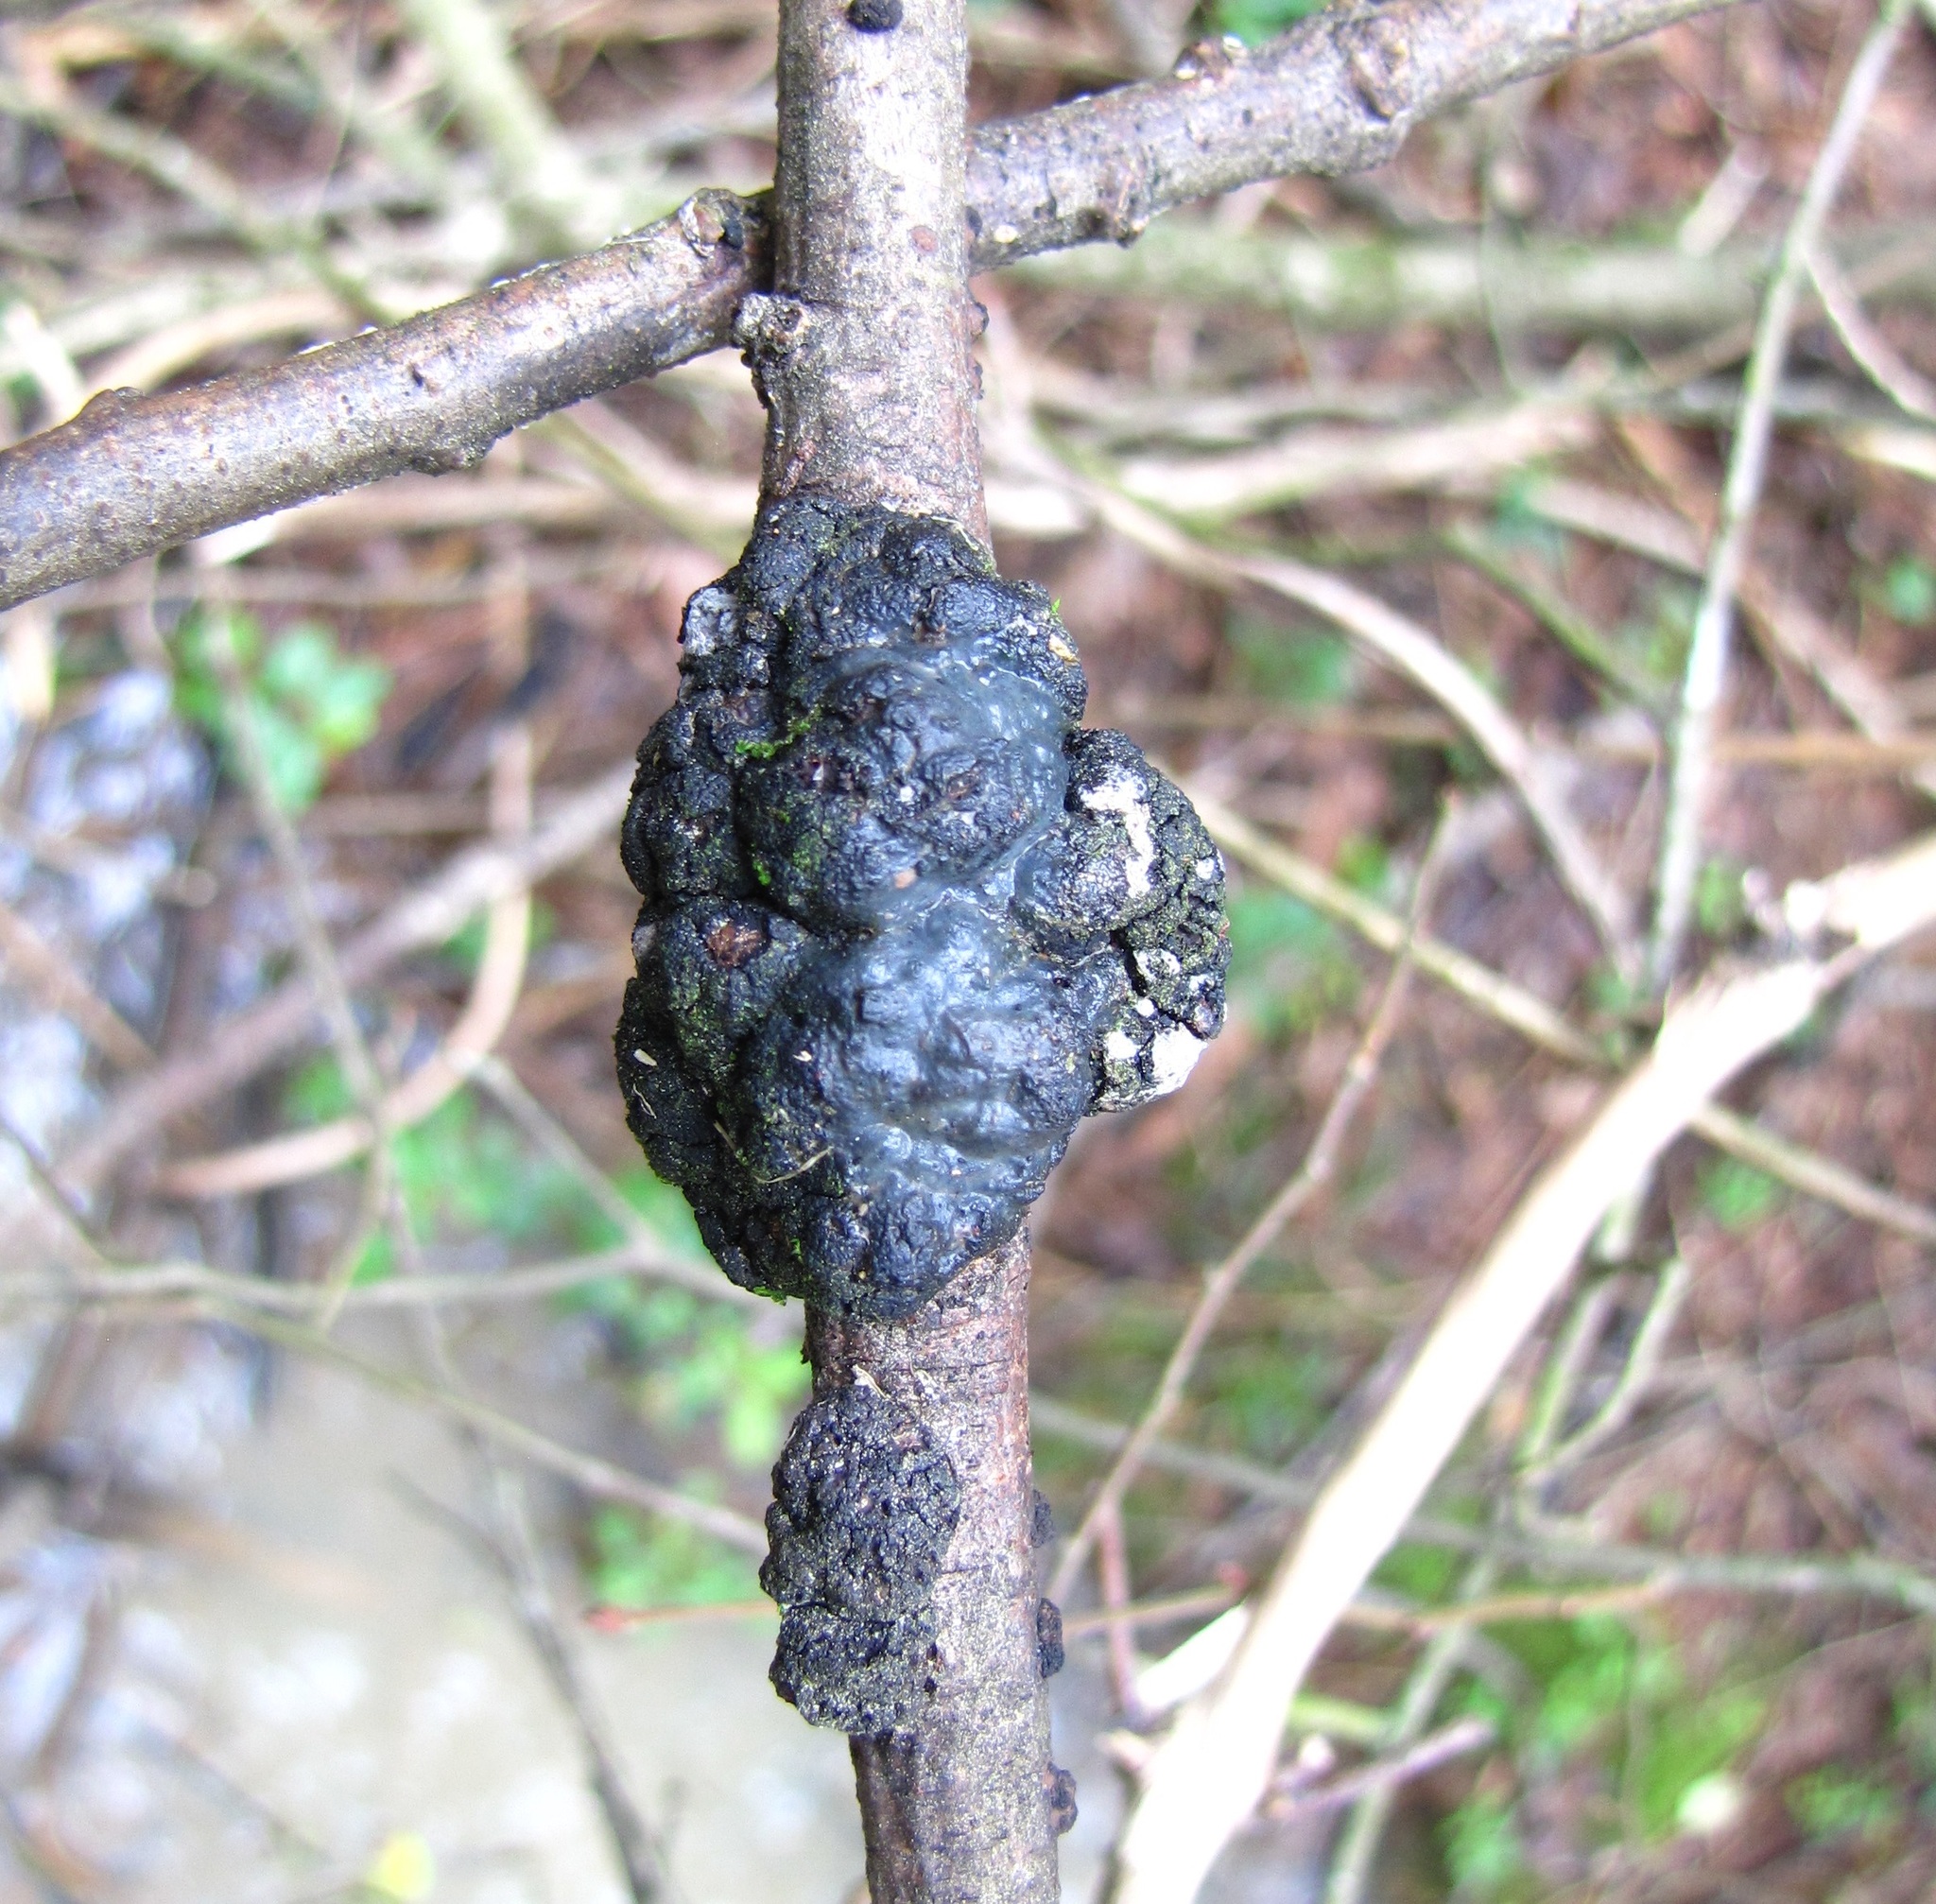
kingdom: Fungi
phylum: Ascomycota
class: Dothideomycetes
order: Venturiales
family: Venturiaceae
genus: Apiosporina
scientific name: Apiosporina morbosa
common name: Black knot
